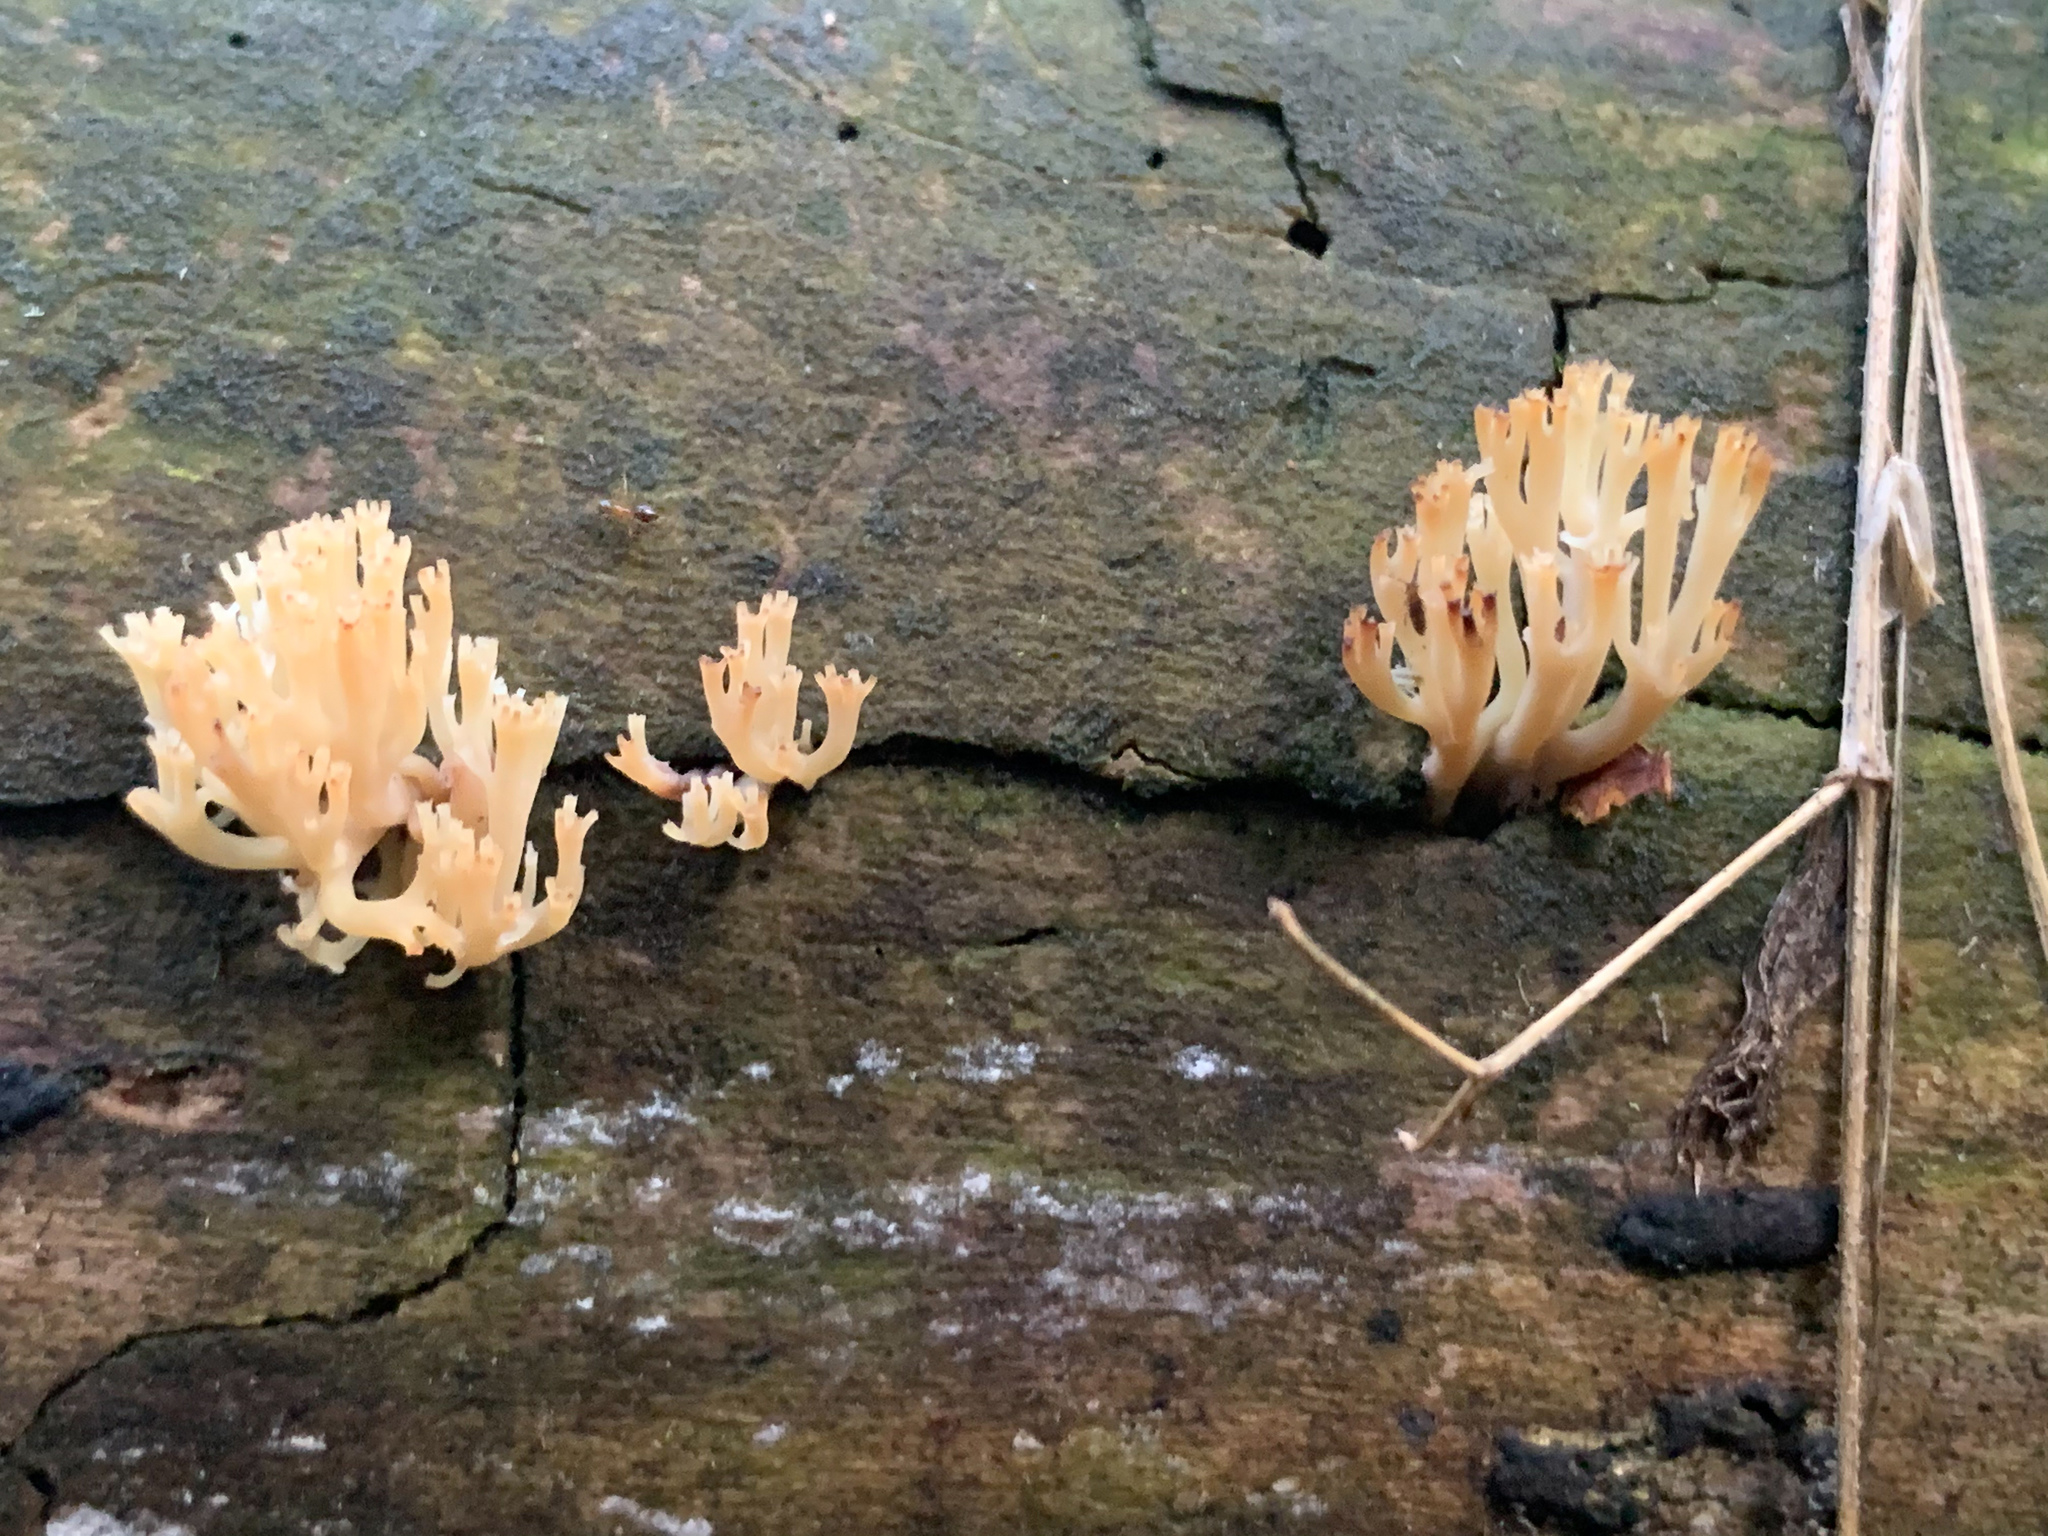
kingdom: Fungi
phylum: Basidiomycota
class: Agaricomycetes
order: Russulales
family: Auriscalpiaceae
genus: Artomyces
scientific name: Artomyces pyxidatus
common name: Crown-tipped coral fungus
